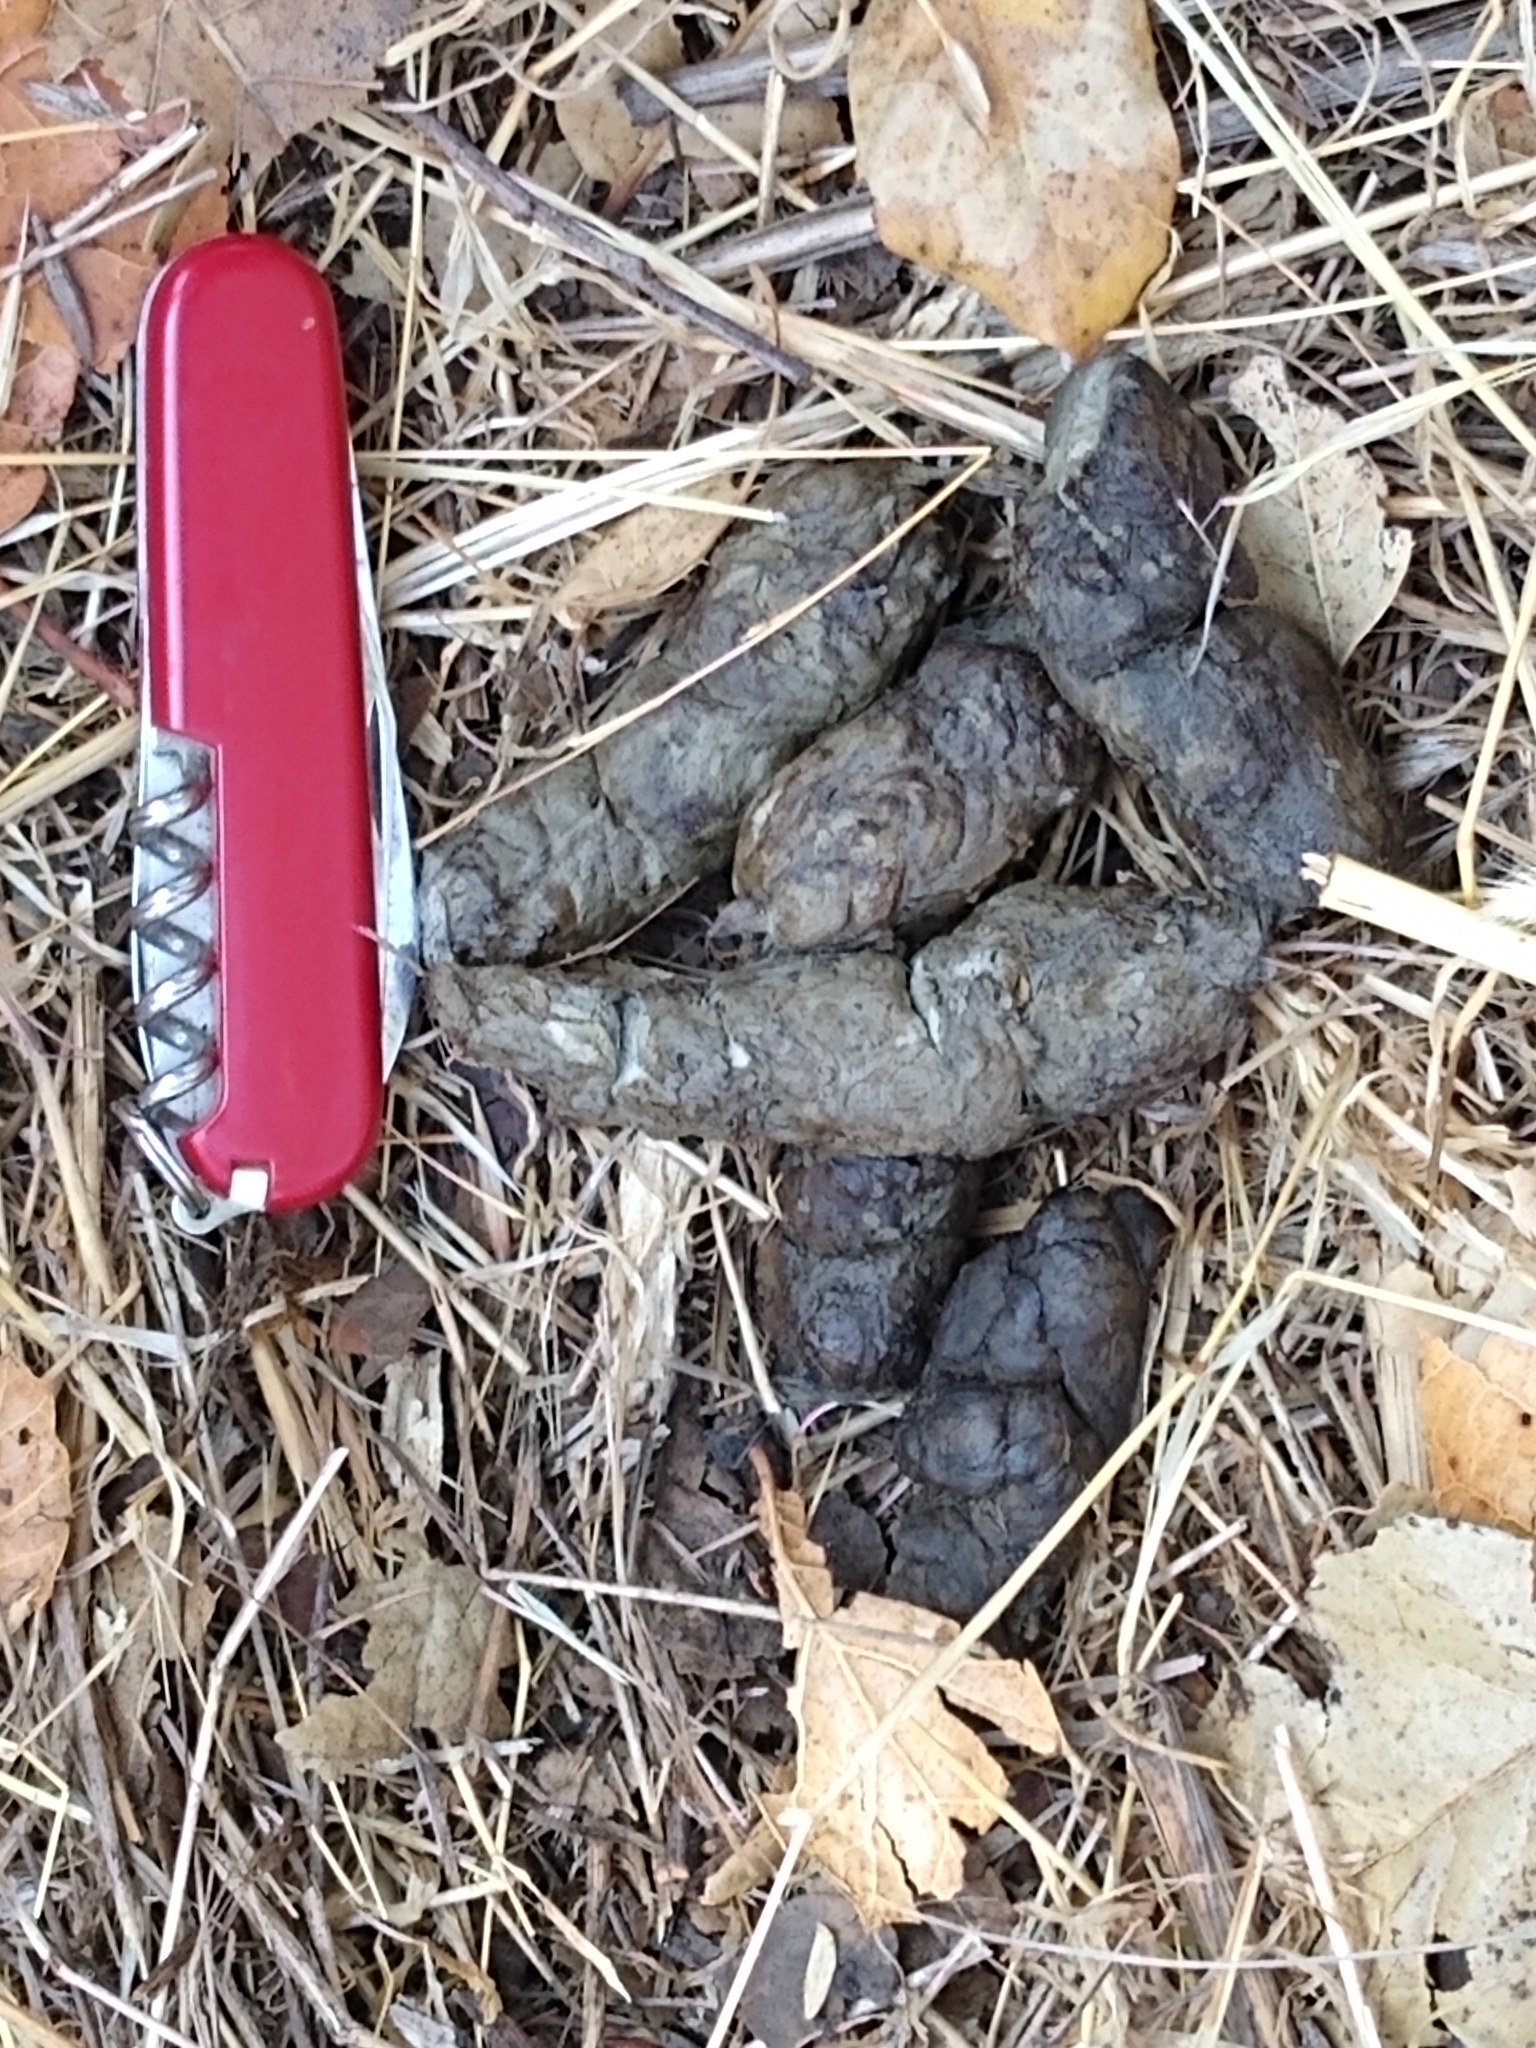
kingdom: Animalia
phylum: Chordata
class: Mammalia
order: Carnivora
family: Canidae
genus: Canis
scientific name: Canis latrans
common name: Coyote
